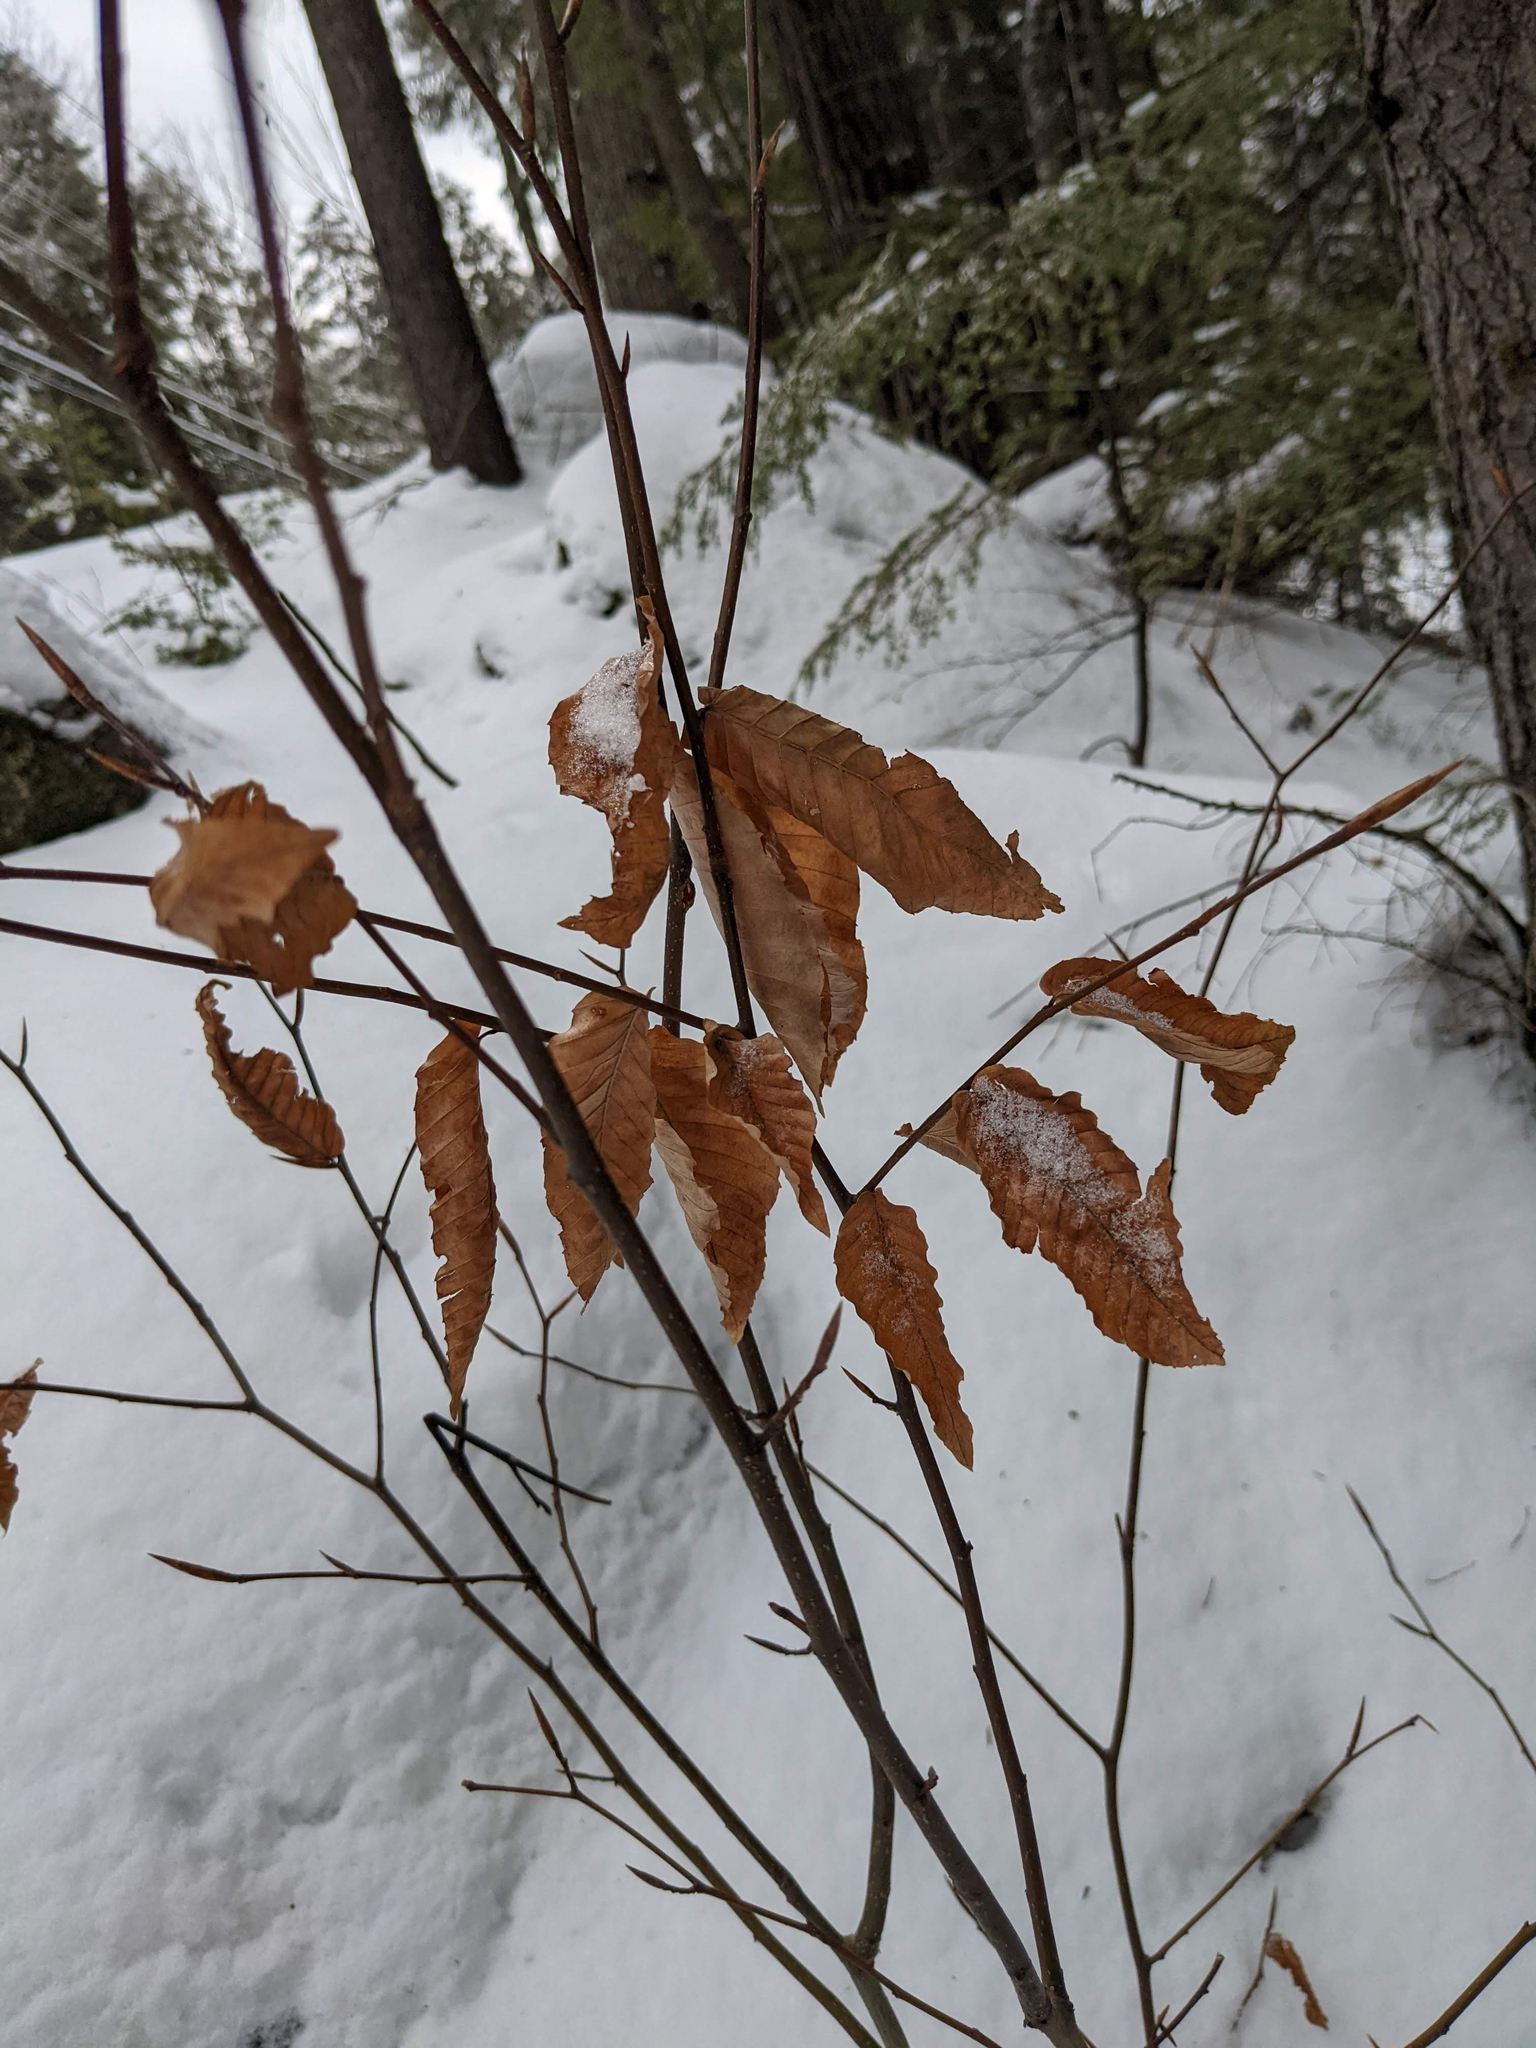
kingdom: Plantae
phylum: Tracheophyta
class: Magnoliopsida
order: Fagales
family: Fagaceae
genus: Fagus
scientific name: Fagus grandifolia
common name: American beech
